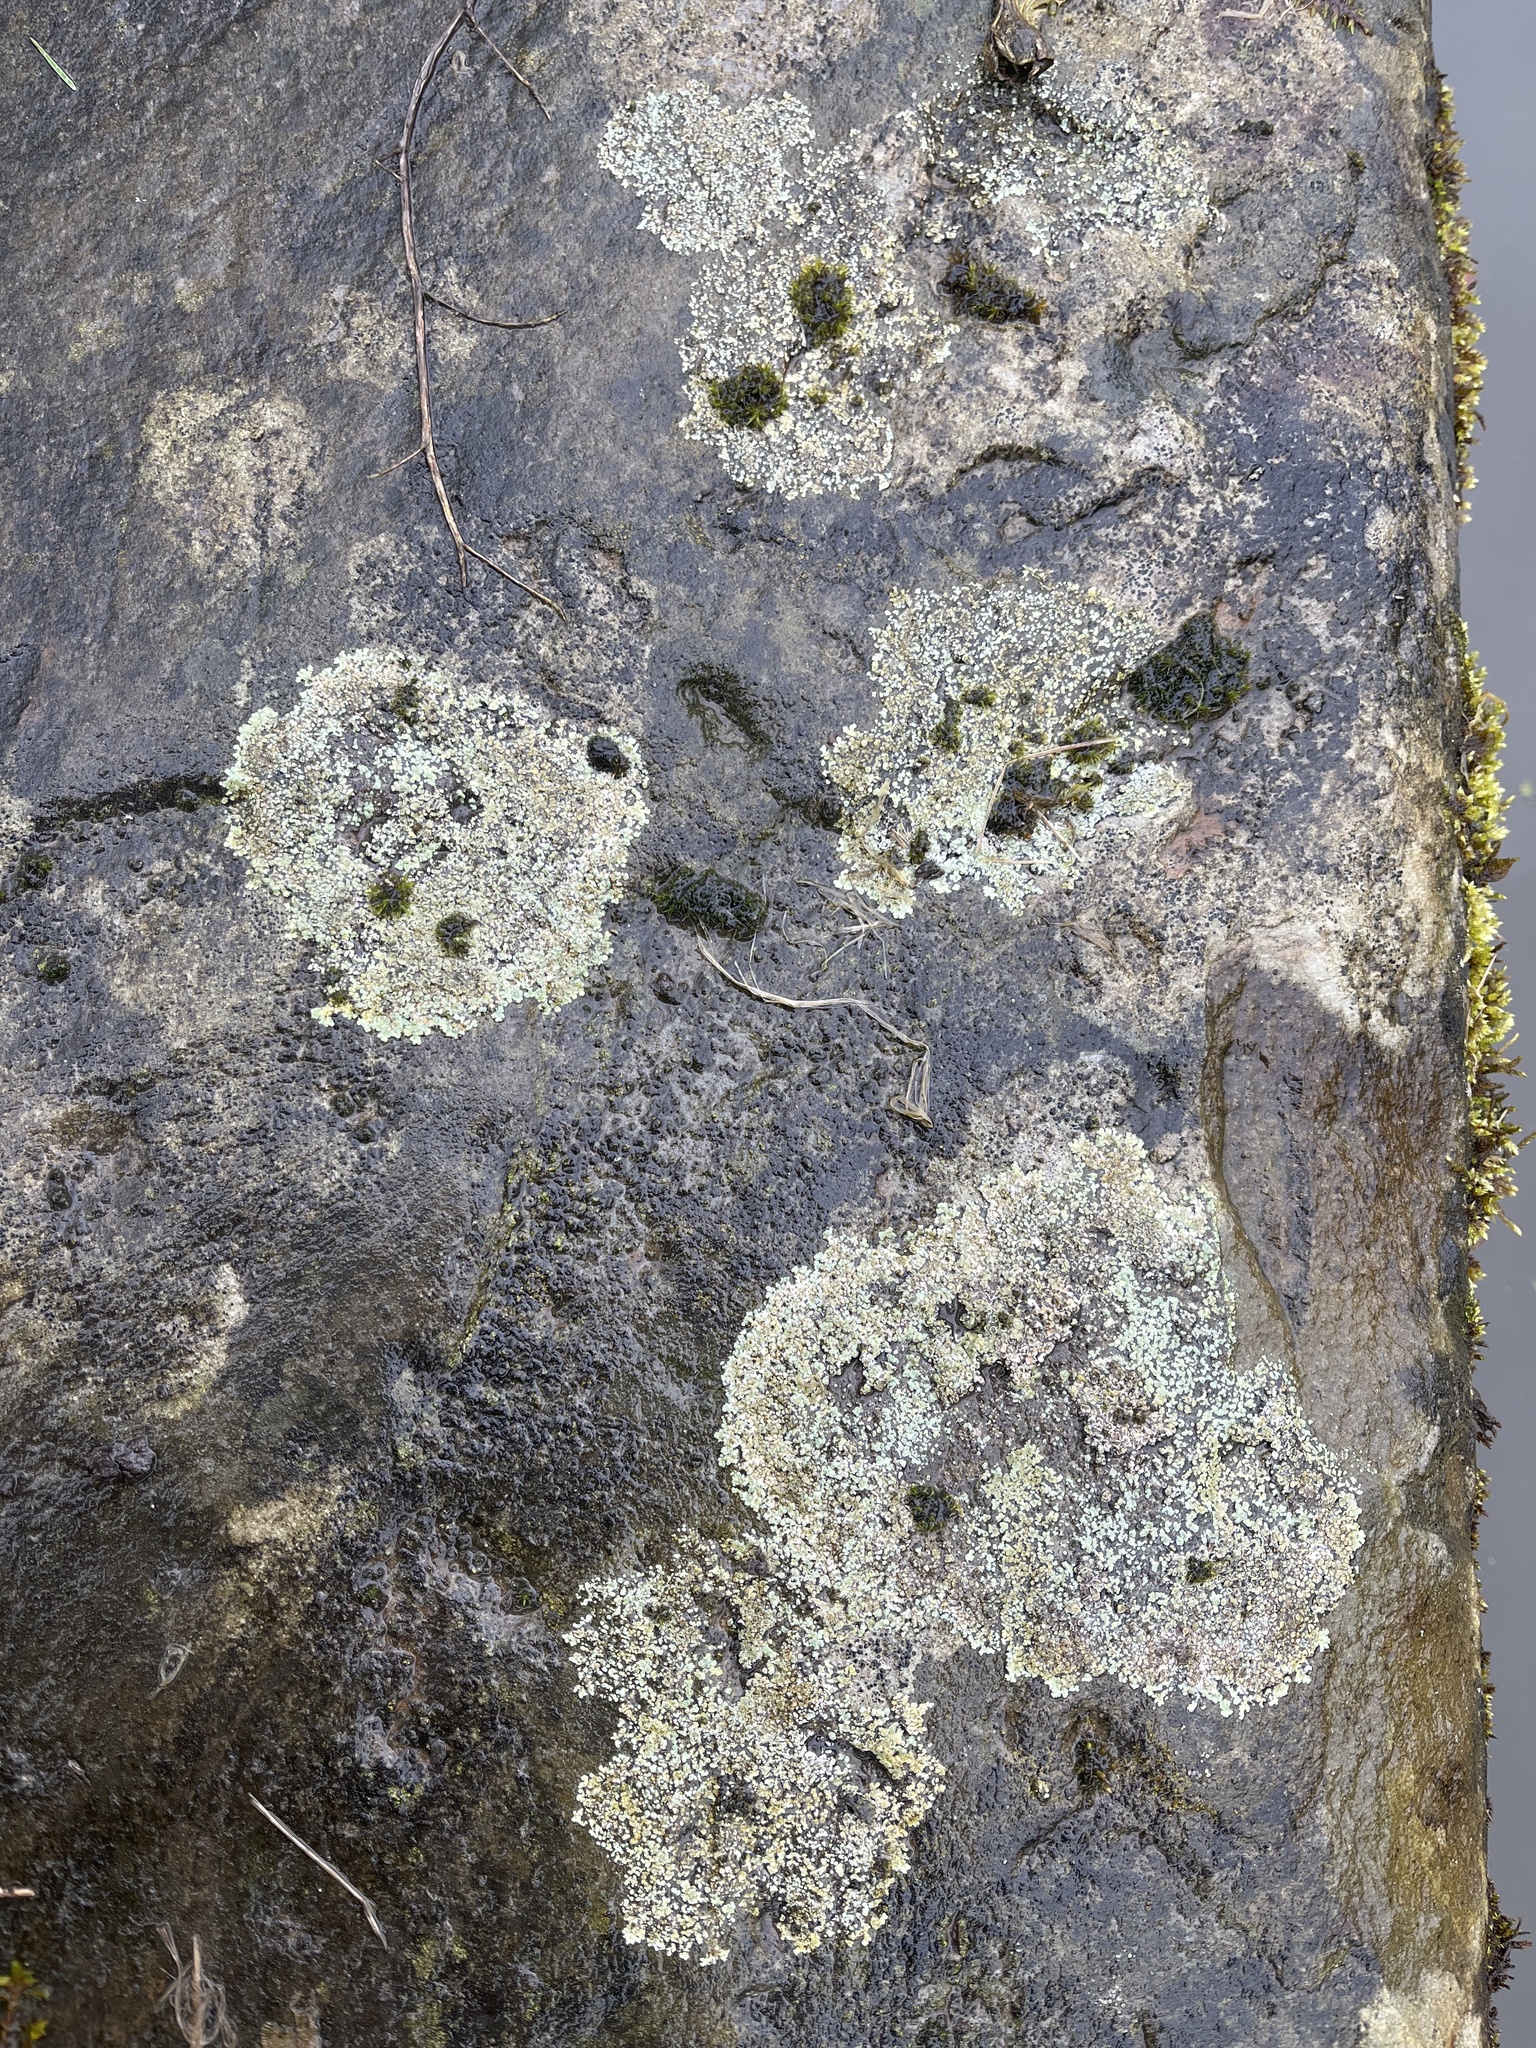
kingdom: Fungi
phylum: Ascomycota
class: Lecanoromycetes
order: Lecanorales
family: Lecanoraceae
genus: Protoparmeliopsis
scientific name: Protoparmeliopsis muralis
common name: Stonewall rim lichen
